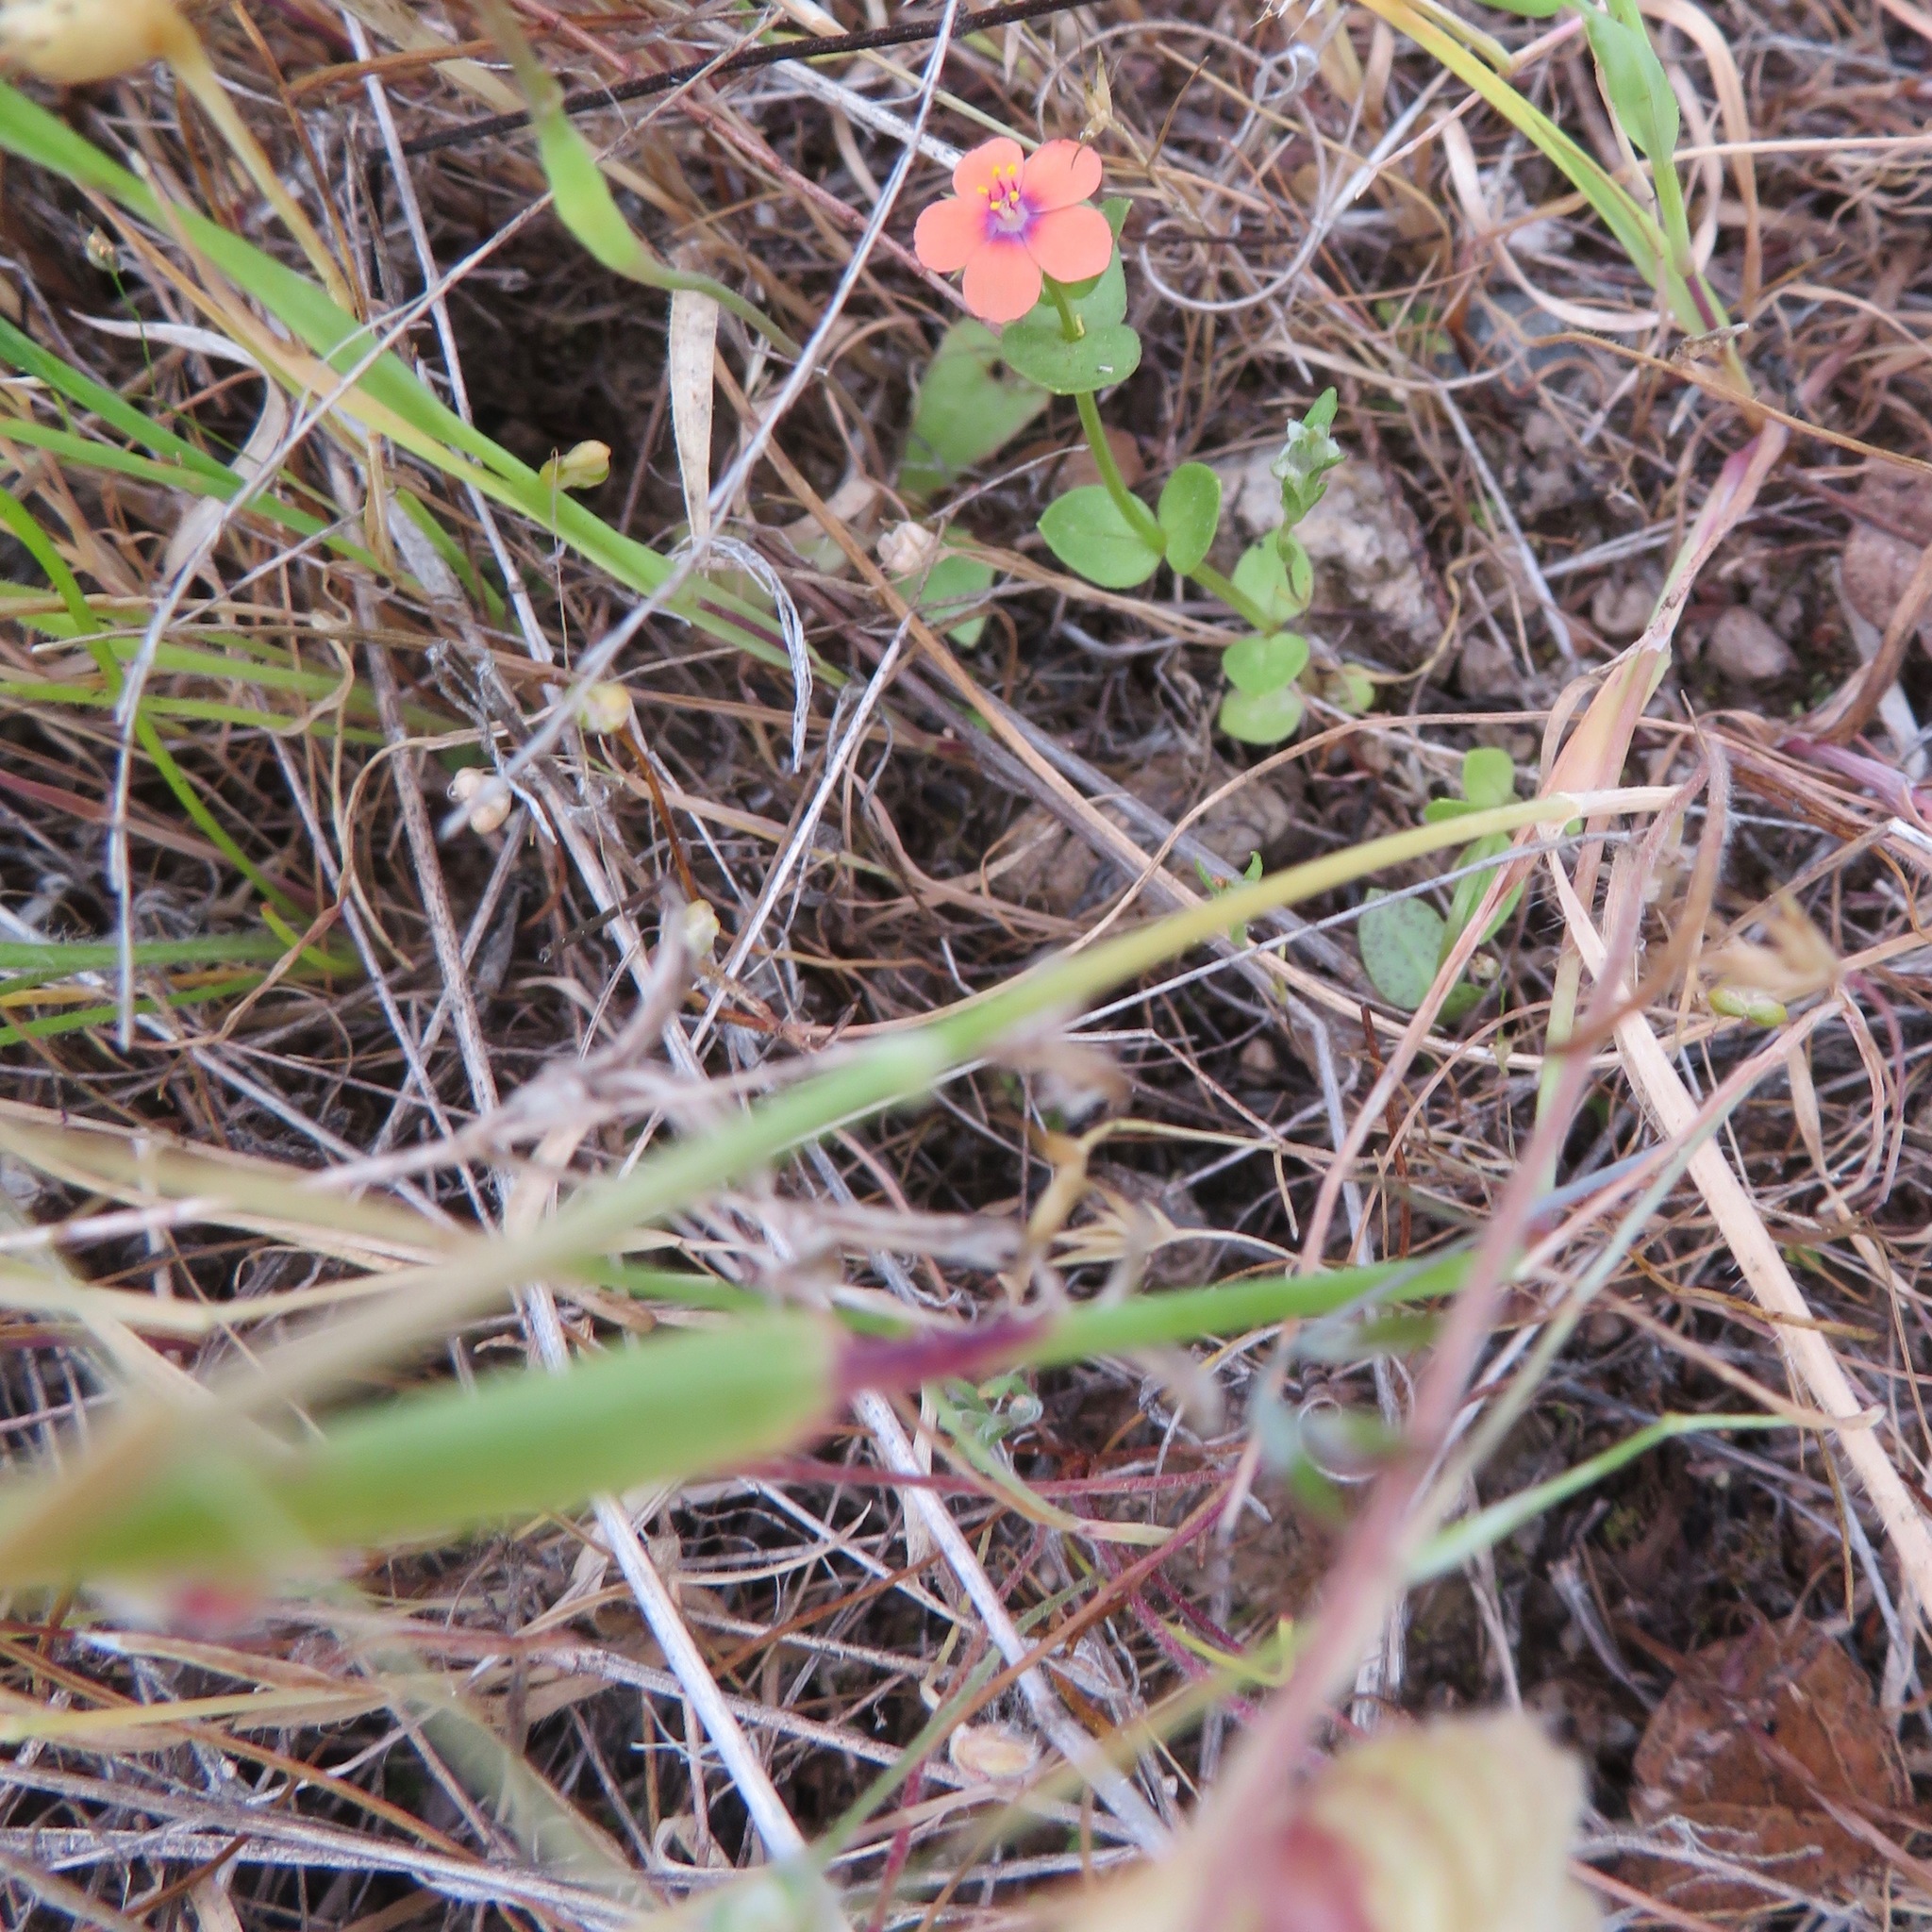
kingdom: Plantae
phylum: Tracheophyta
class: Magnoliopsida
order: Ericales
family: Primulaceae
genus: Lysimachia
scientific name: Lysimachia arvensis
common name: Scarlet pimpernel
